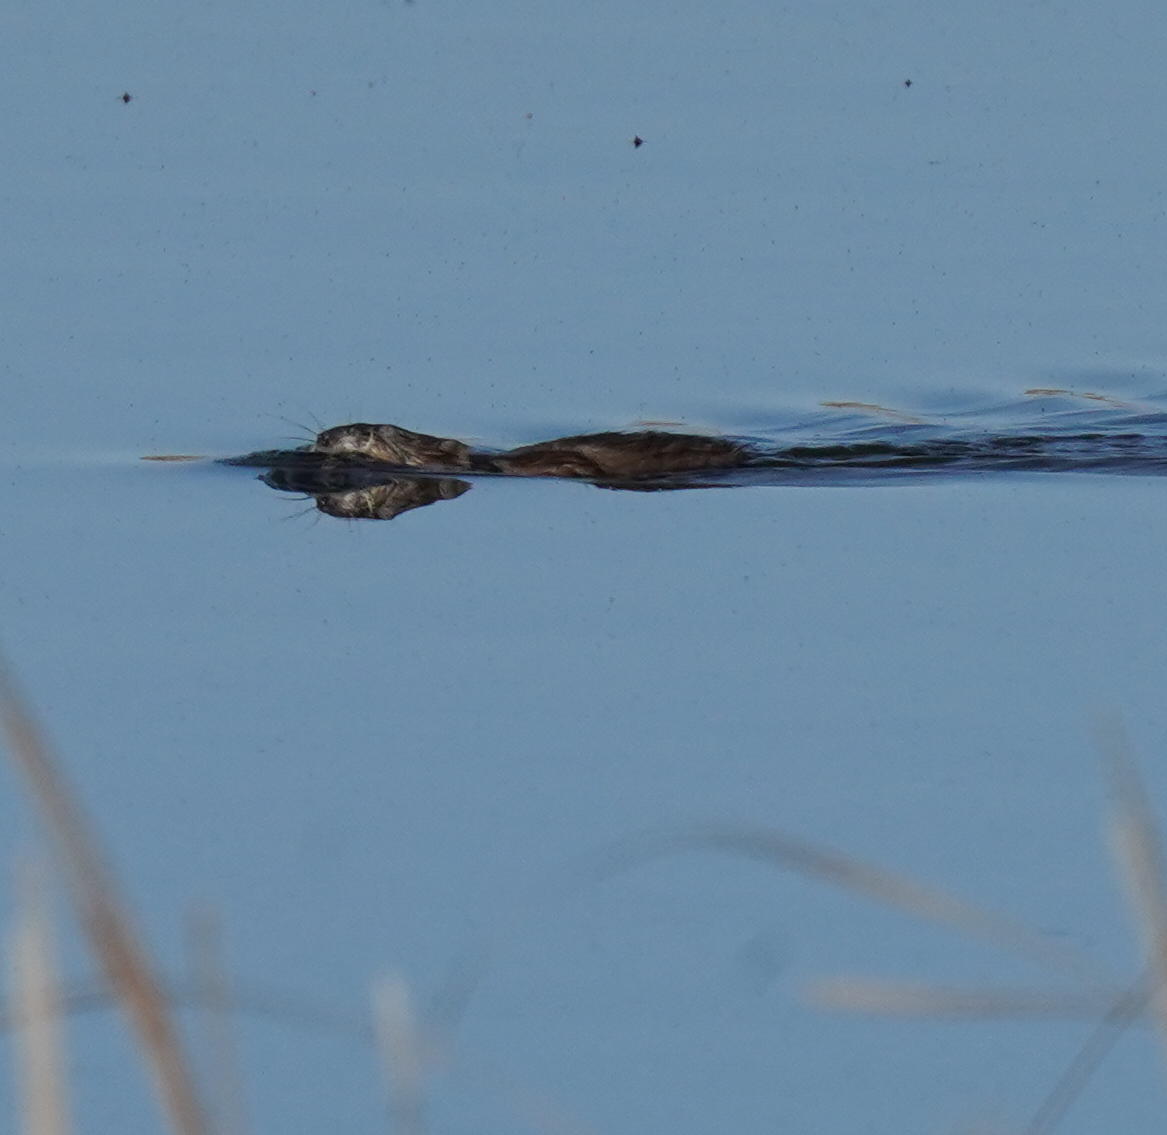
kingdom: Animalia
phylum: Chordata
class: Mammalia
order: Rodentia
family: Cricetidae
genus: Ondatra
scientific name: Ondatra zibethicus
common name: Muskrat
